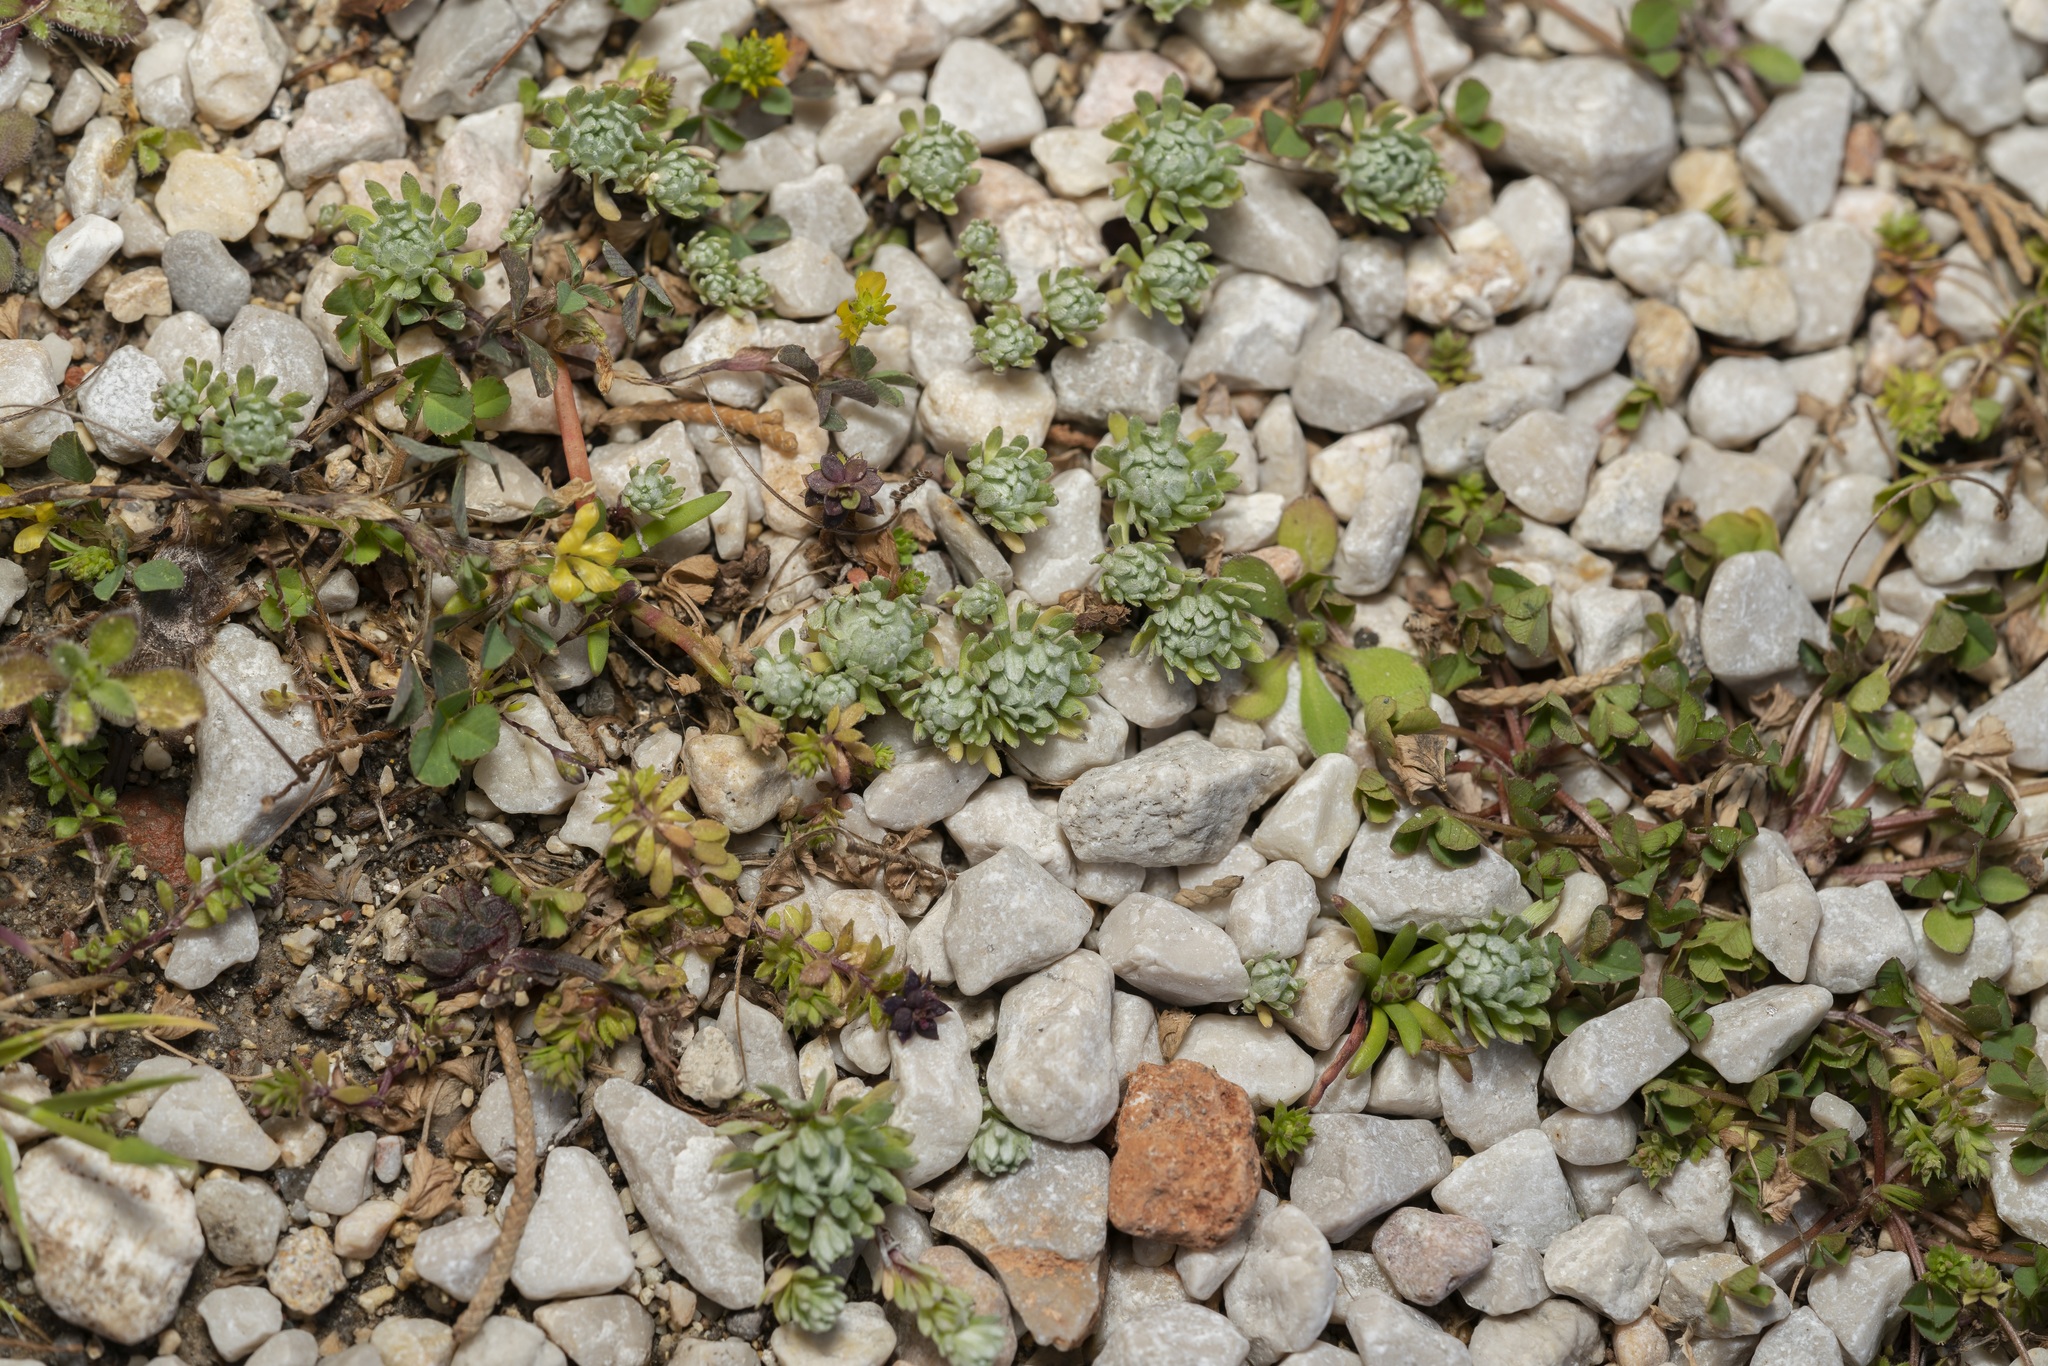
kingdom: Plantae
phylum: Tracheophyta
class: Magnoliopsida
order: Asterales
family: Asteraceae
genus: Filago
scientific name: Filago eriosphaera
